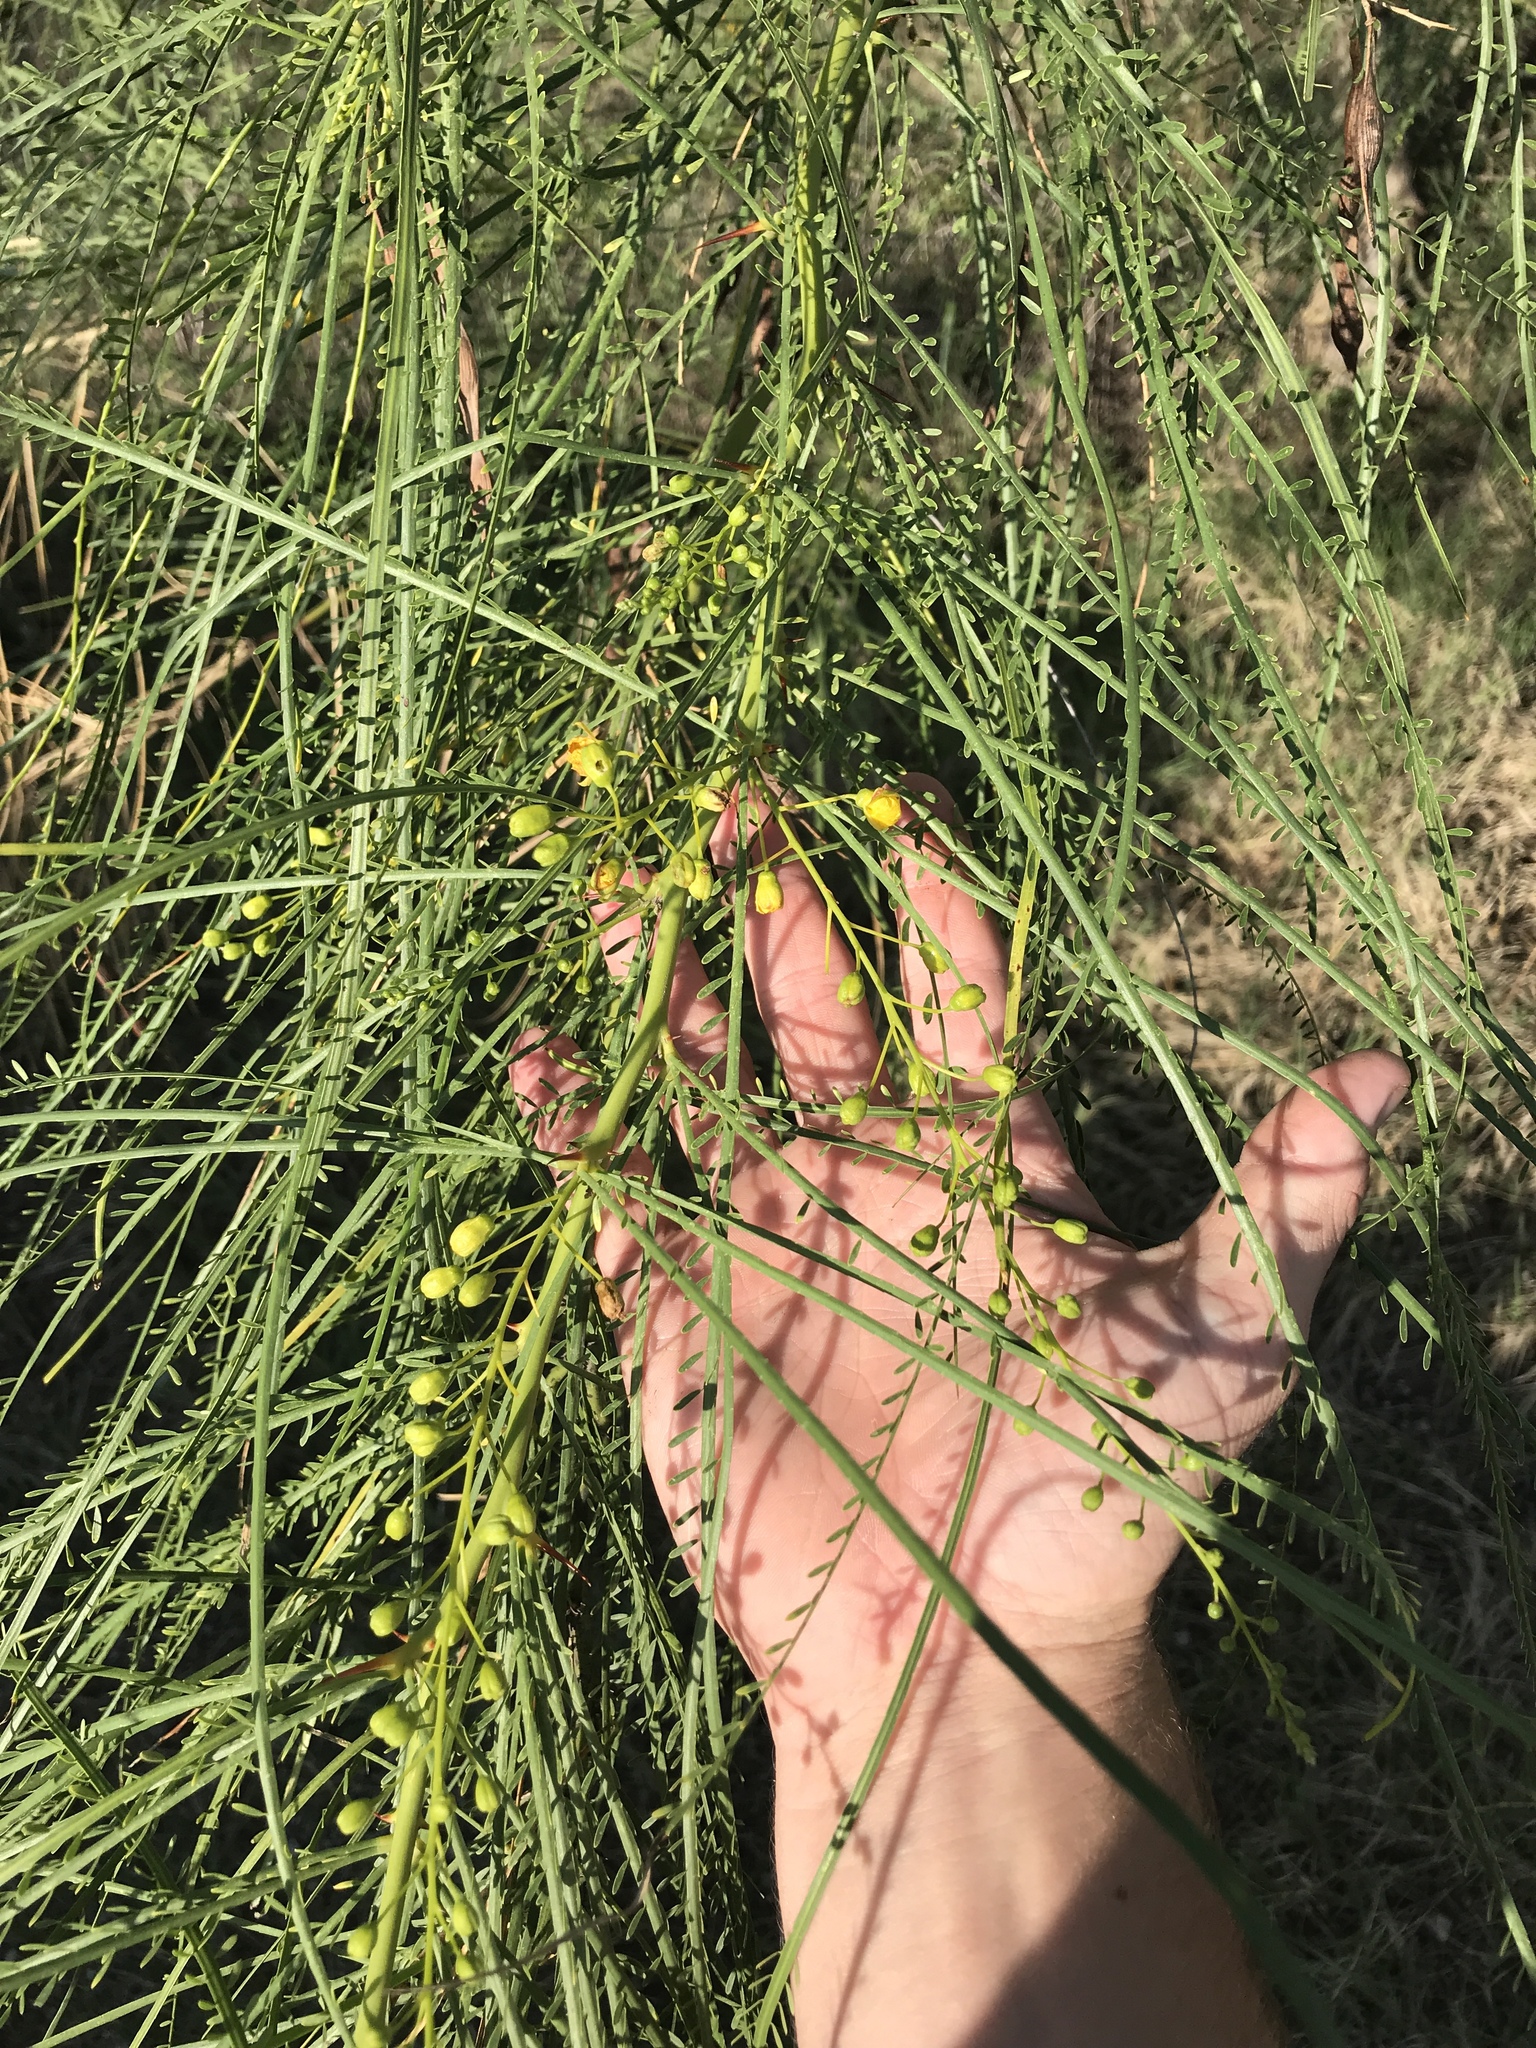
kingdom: Plantae
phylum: Tracheophyta
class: Magnoliopsida
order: Fabales
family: Fabaceae
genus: Parkinsonia
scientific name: Parkinsonia aculeata
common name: Jerusalem thorn
